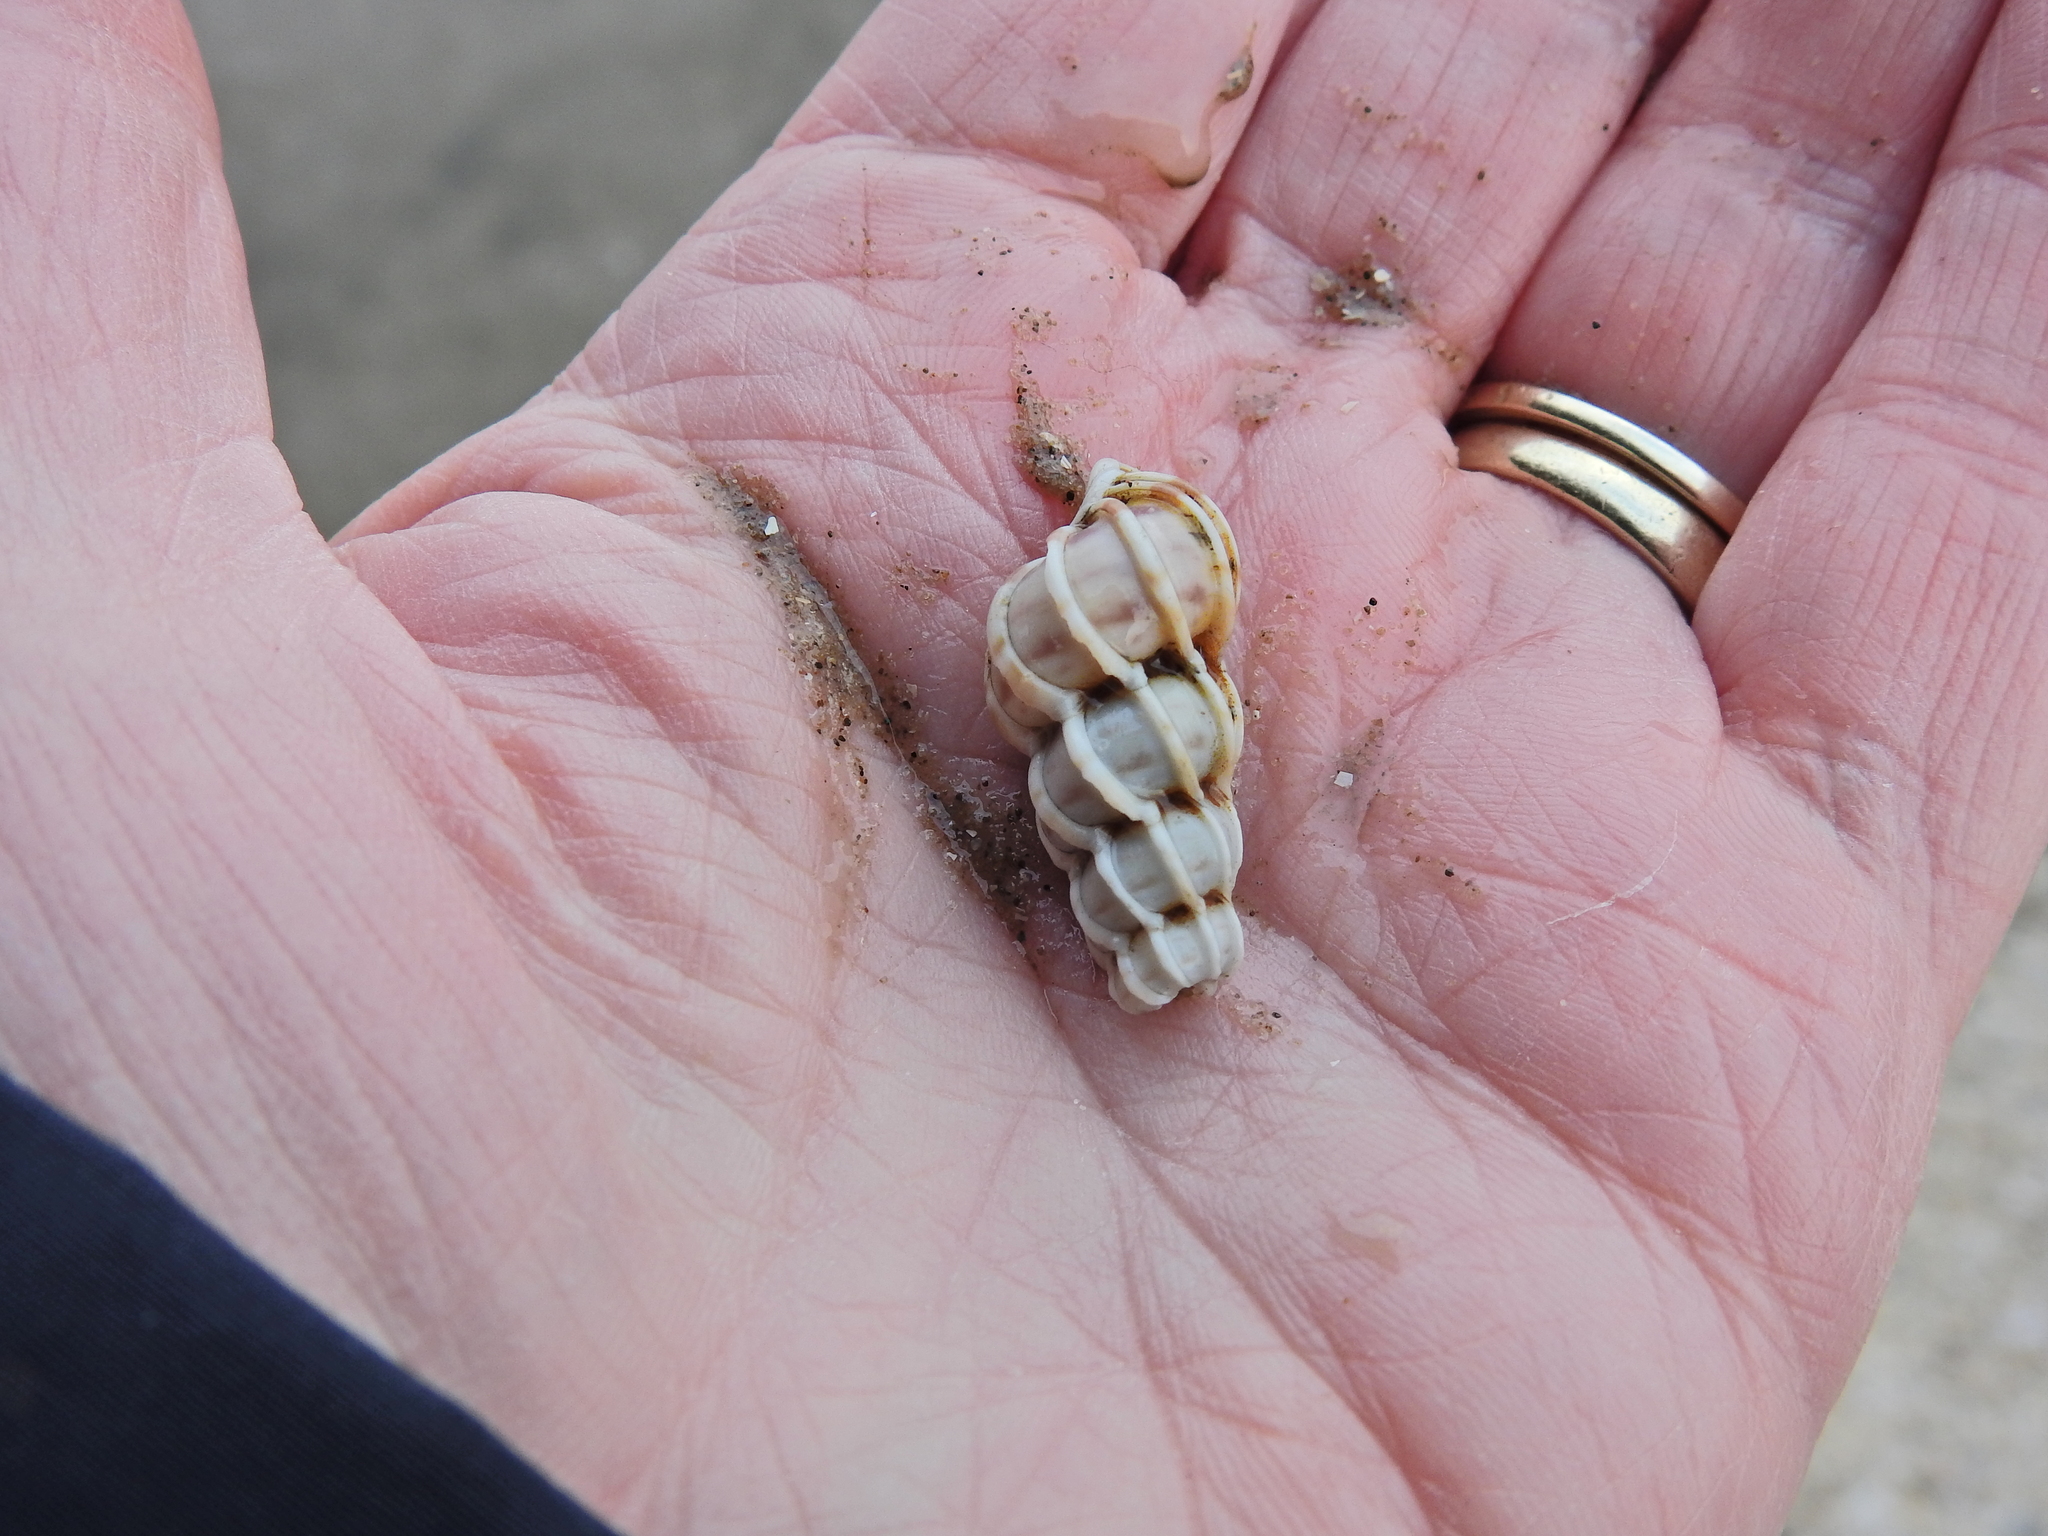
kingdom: Animalia
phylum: Mollusca
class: Gastropoda
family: Epitoniidae
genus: Epitonium
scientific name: Epitonium clathrus
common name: Common wentletrap
